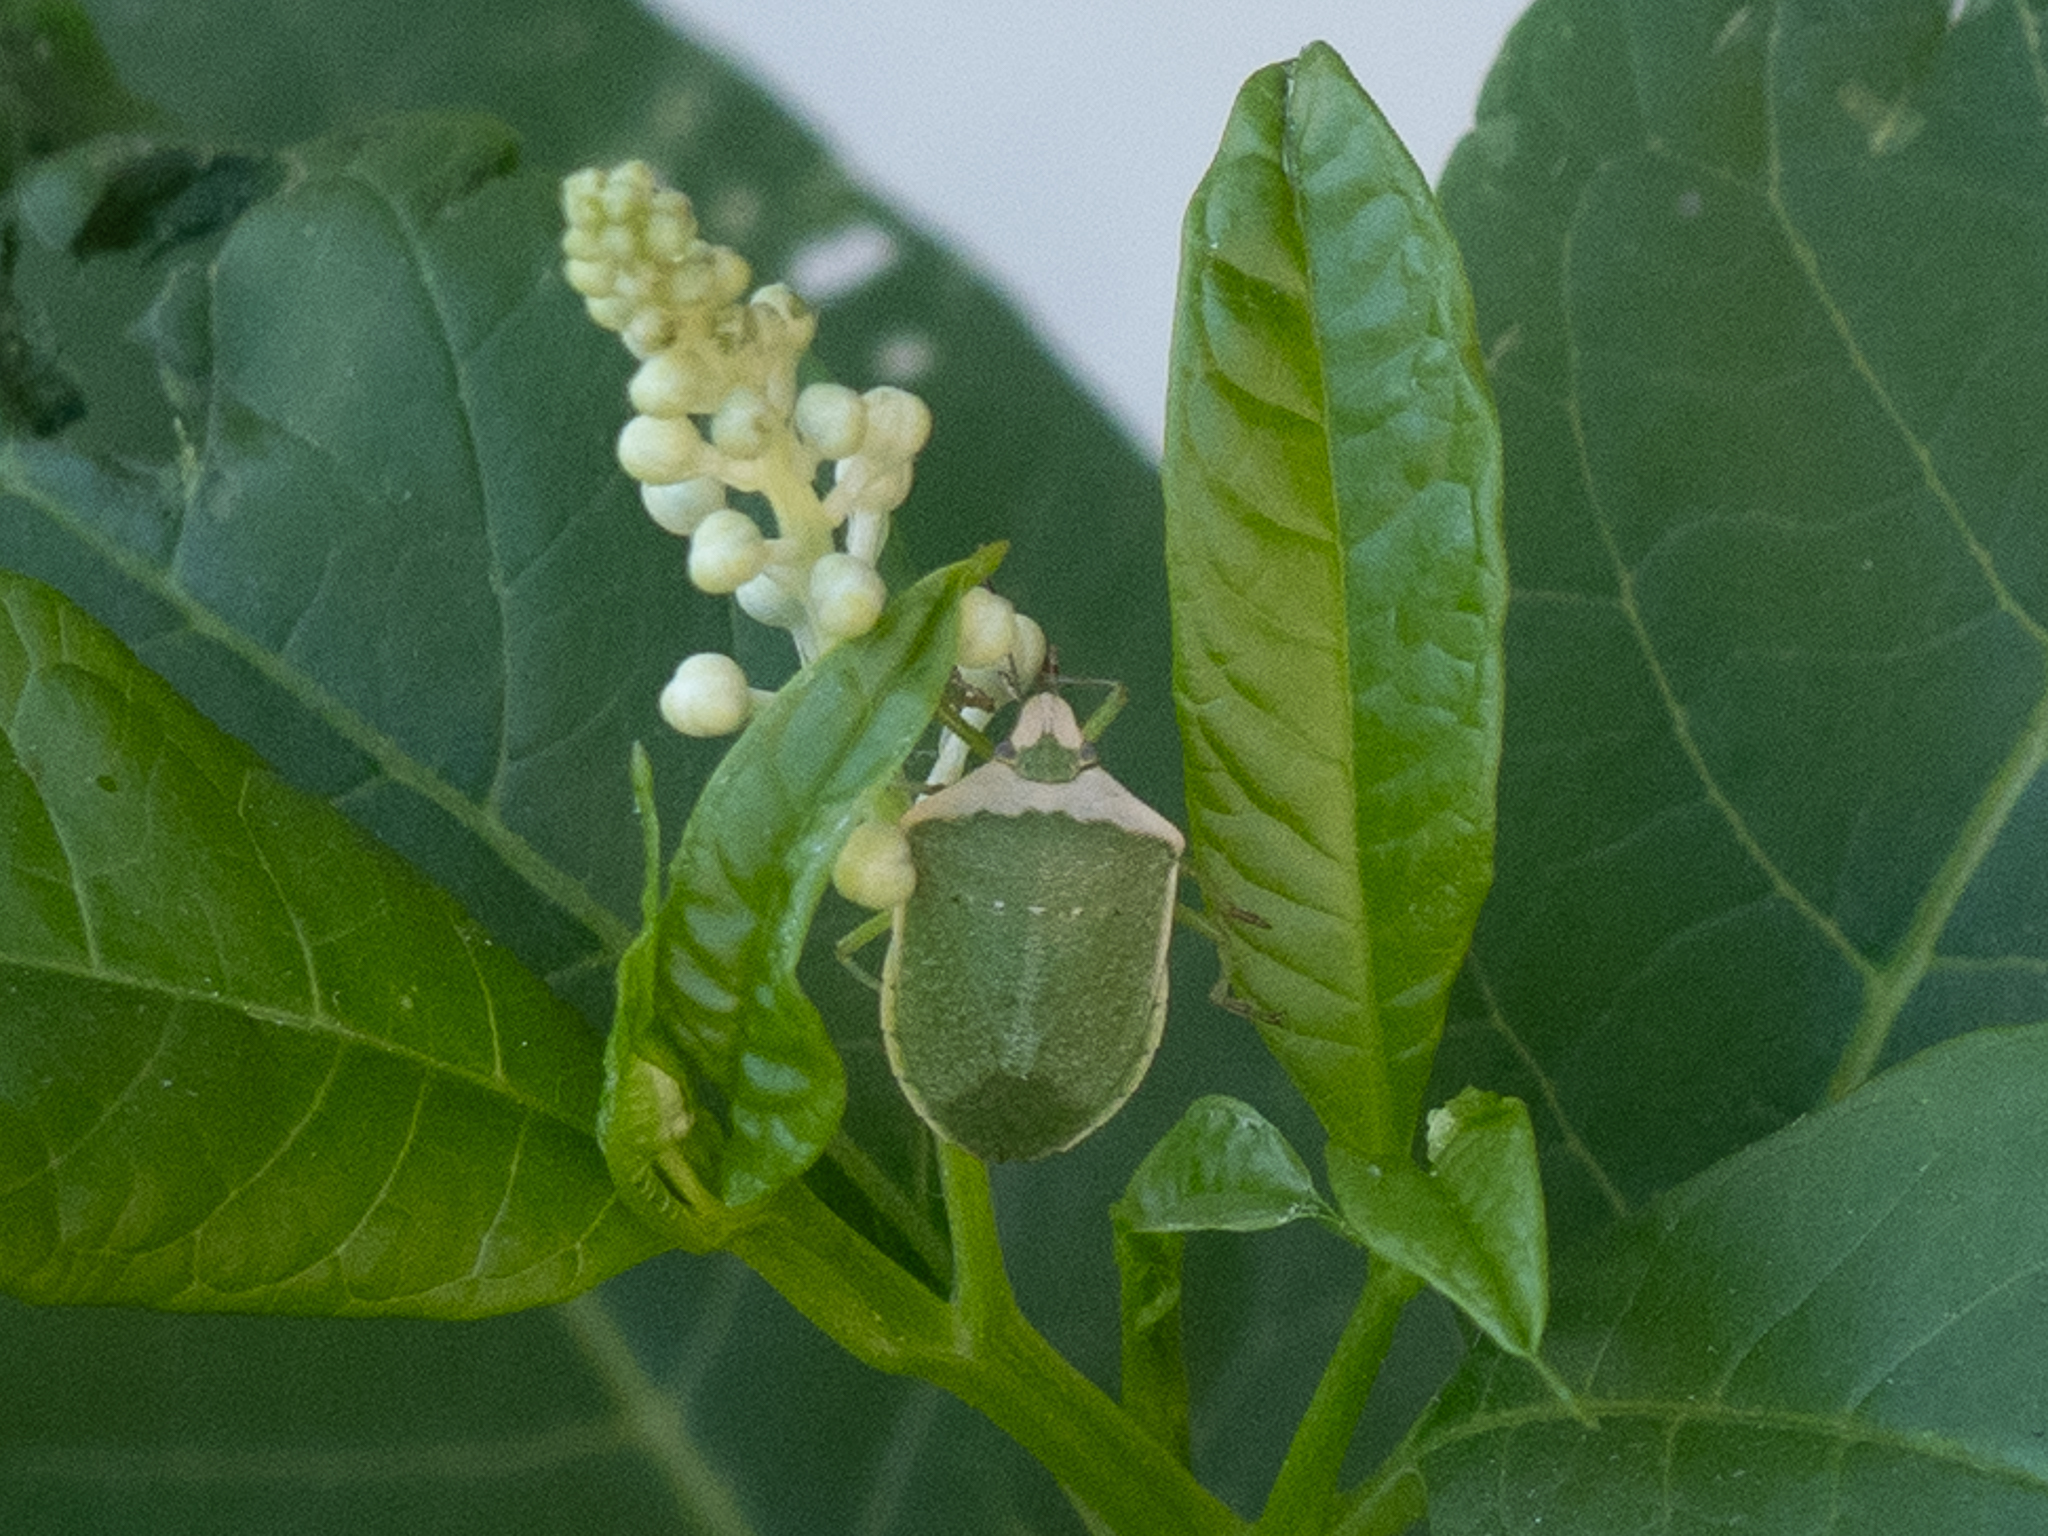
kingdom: Animalia
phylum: Arthropoda
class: Insecta
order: Hemiptera
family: Pentatomidae
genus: Nezara
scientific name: Nezara viridula
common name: Southern green stink bug
